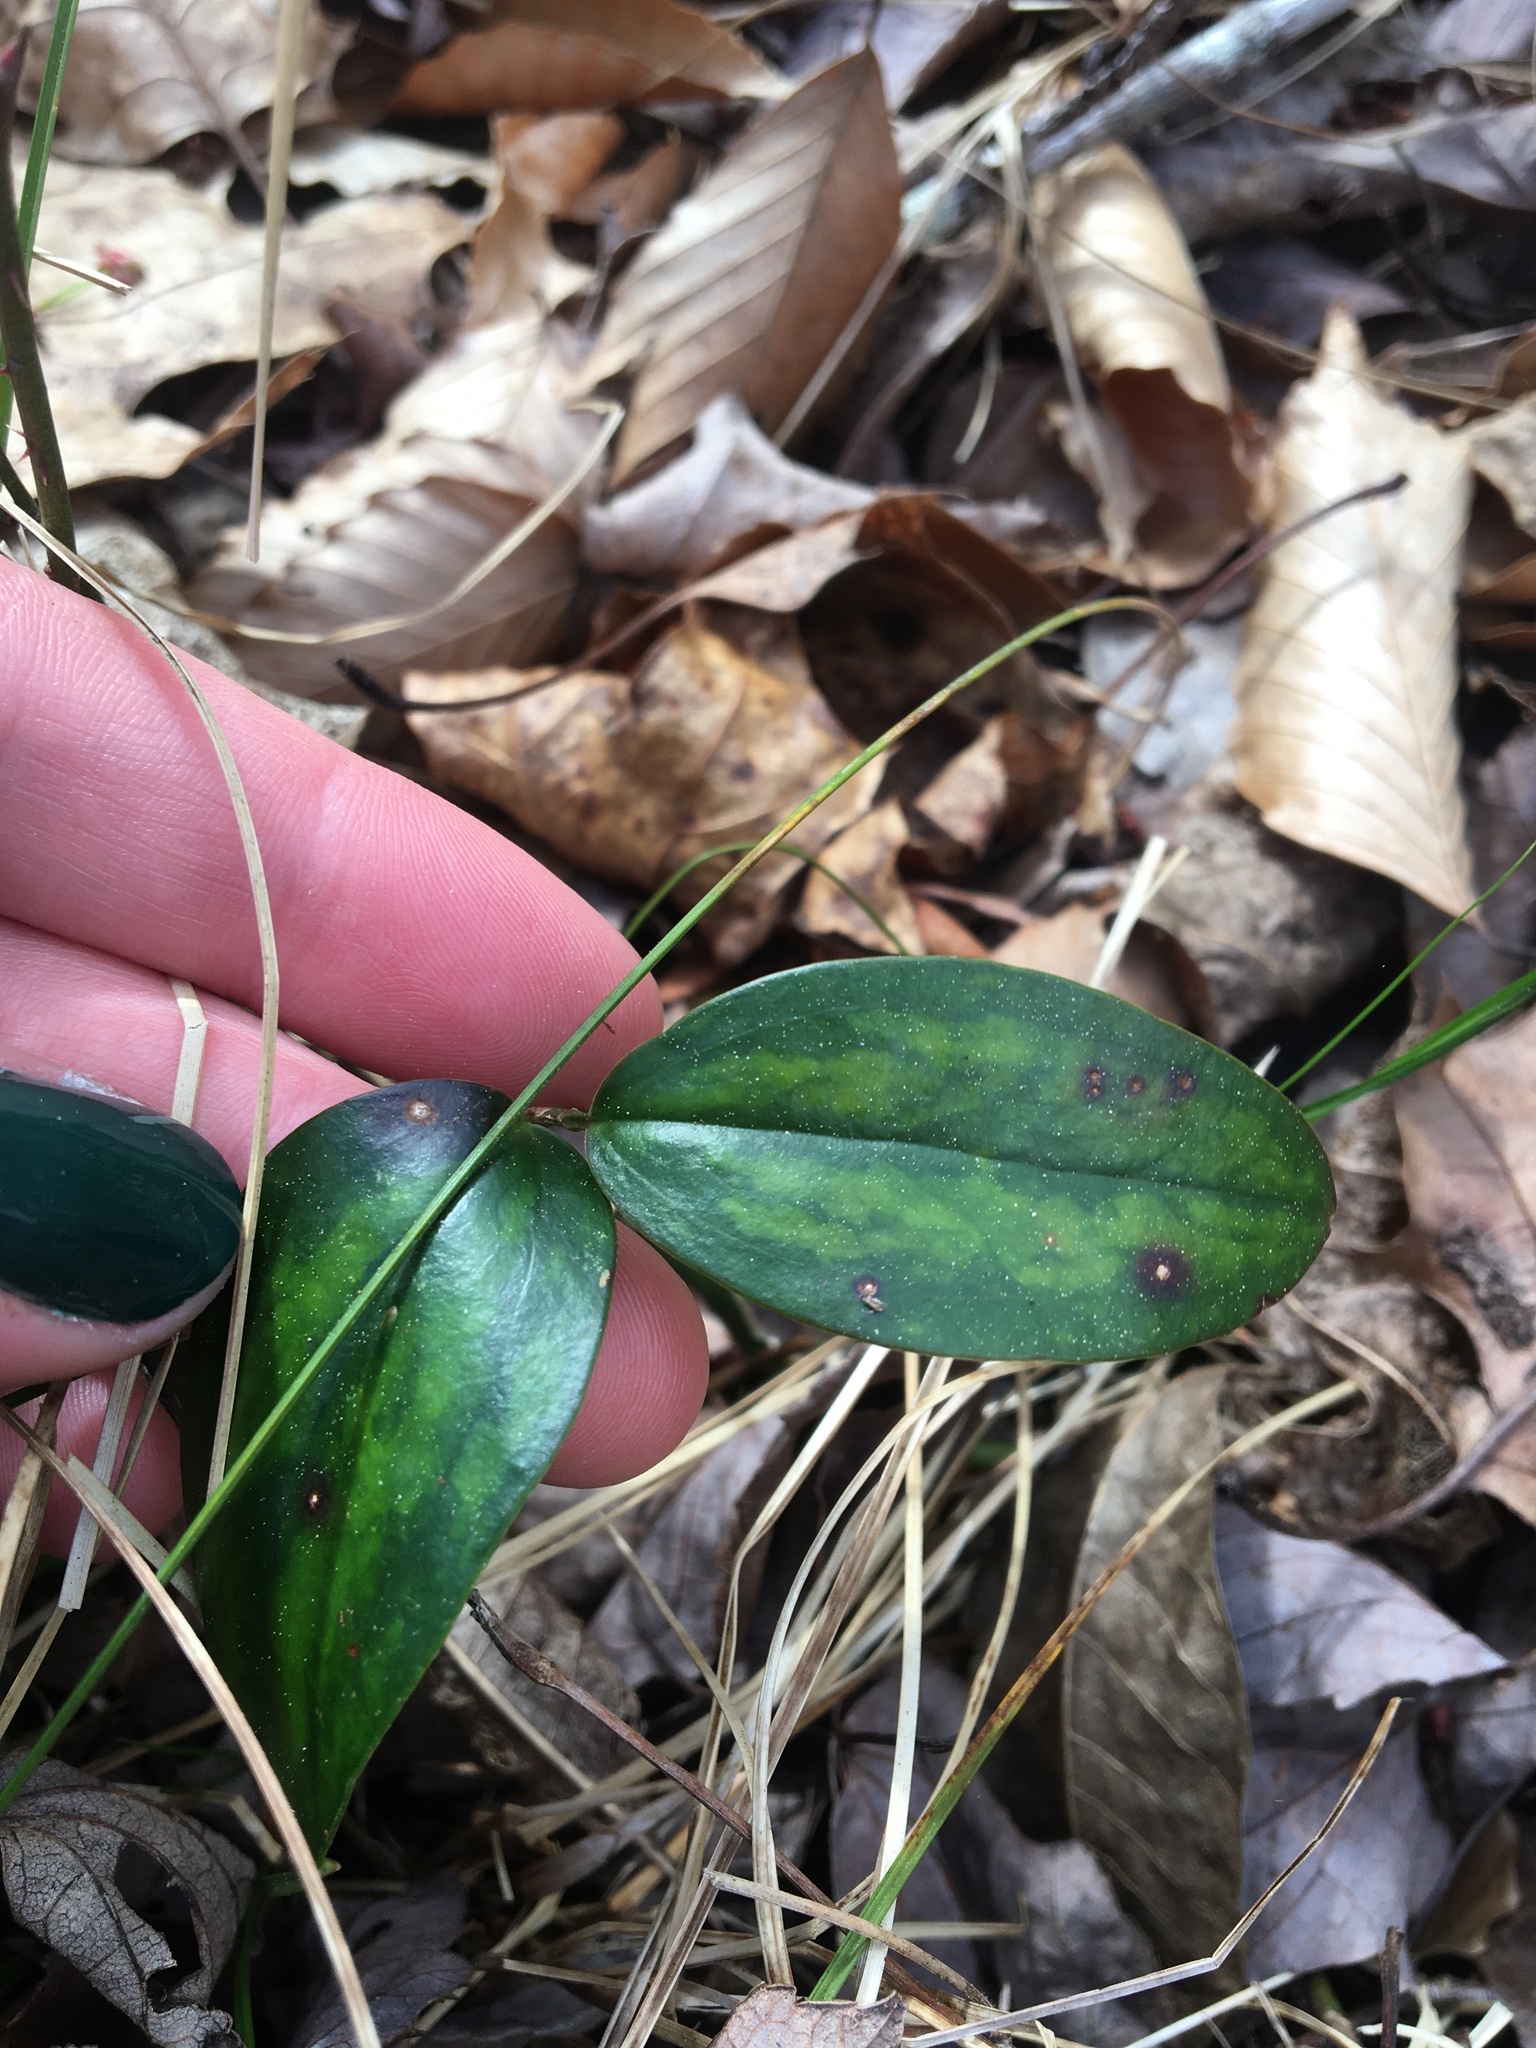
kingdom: Plantae
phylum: Tracheophyta
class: Liliopsida
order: Liliales
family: Smilacaceae
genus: Smilax
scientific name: Smilax maritima
